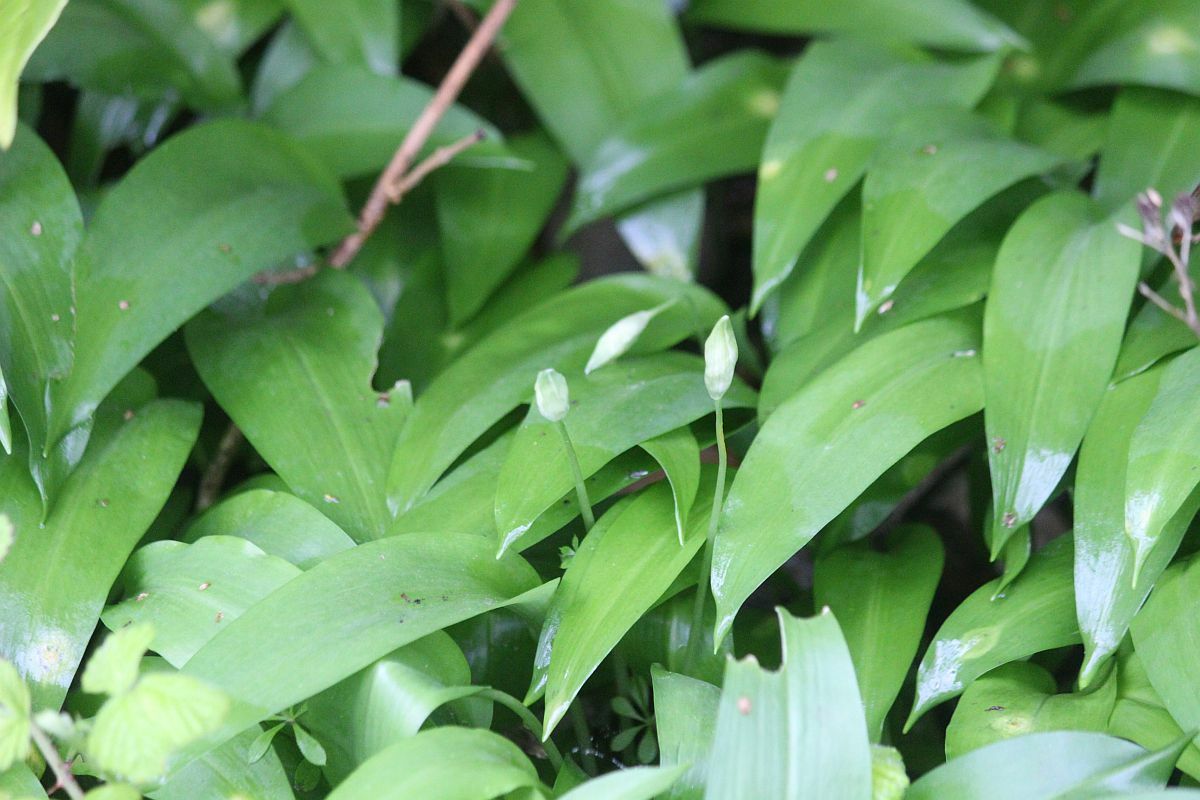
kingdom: Plantae
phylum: Tracheophyta
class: Liliopsida
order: Asparagales
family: Amaryllidaceae
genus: Allium
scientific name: Allium ursinum
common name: Ramsons
